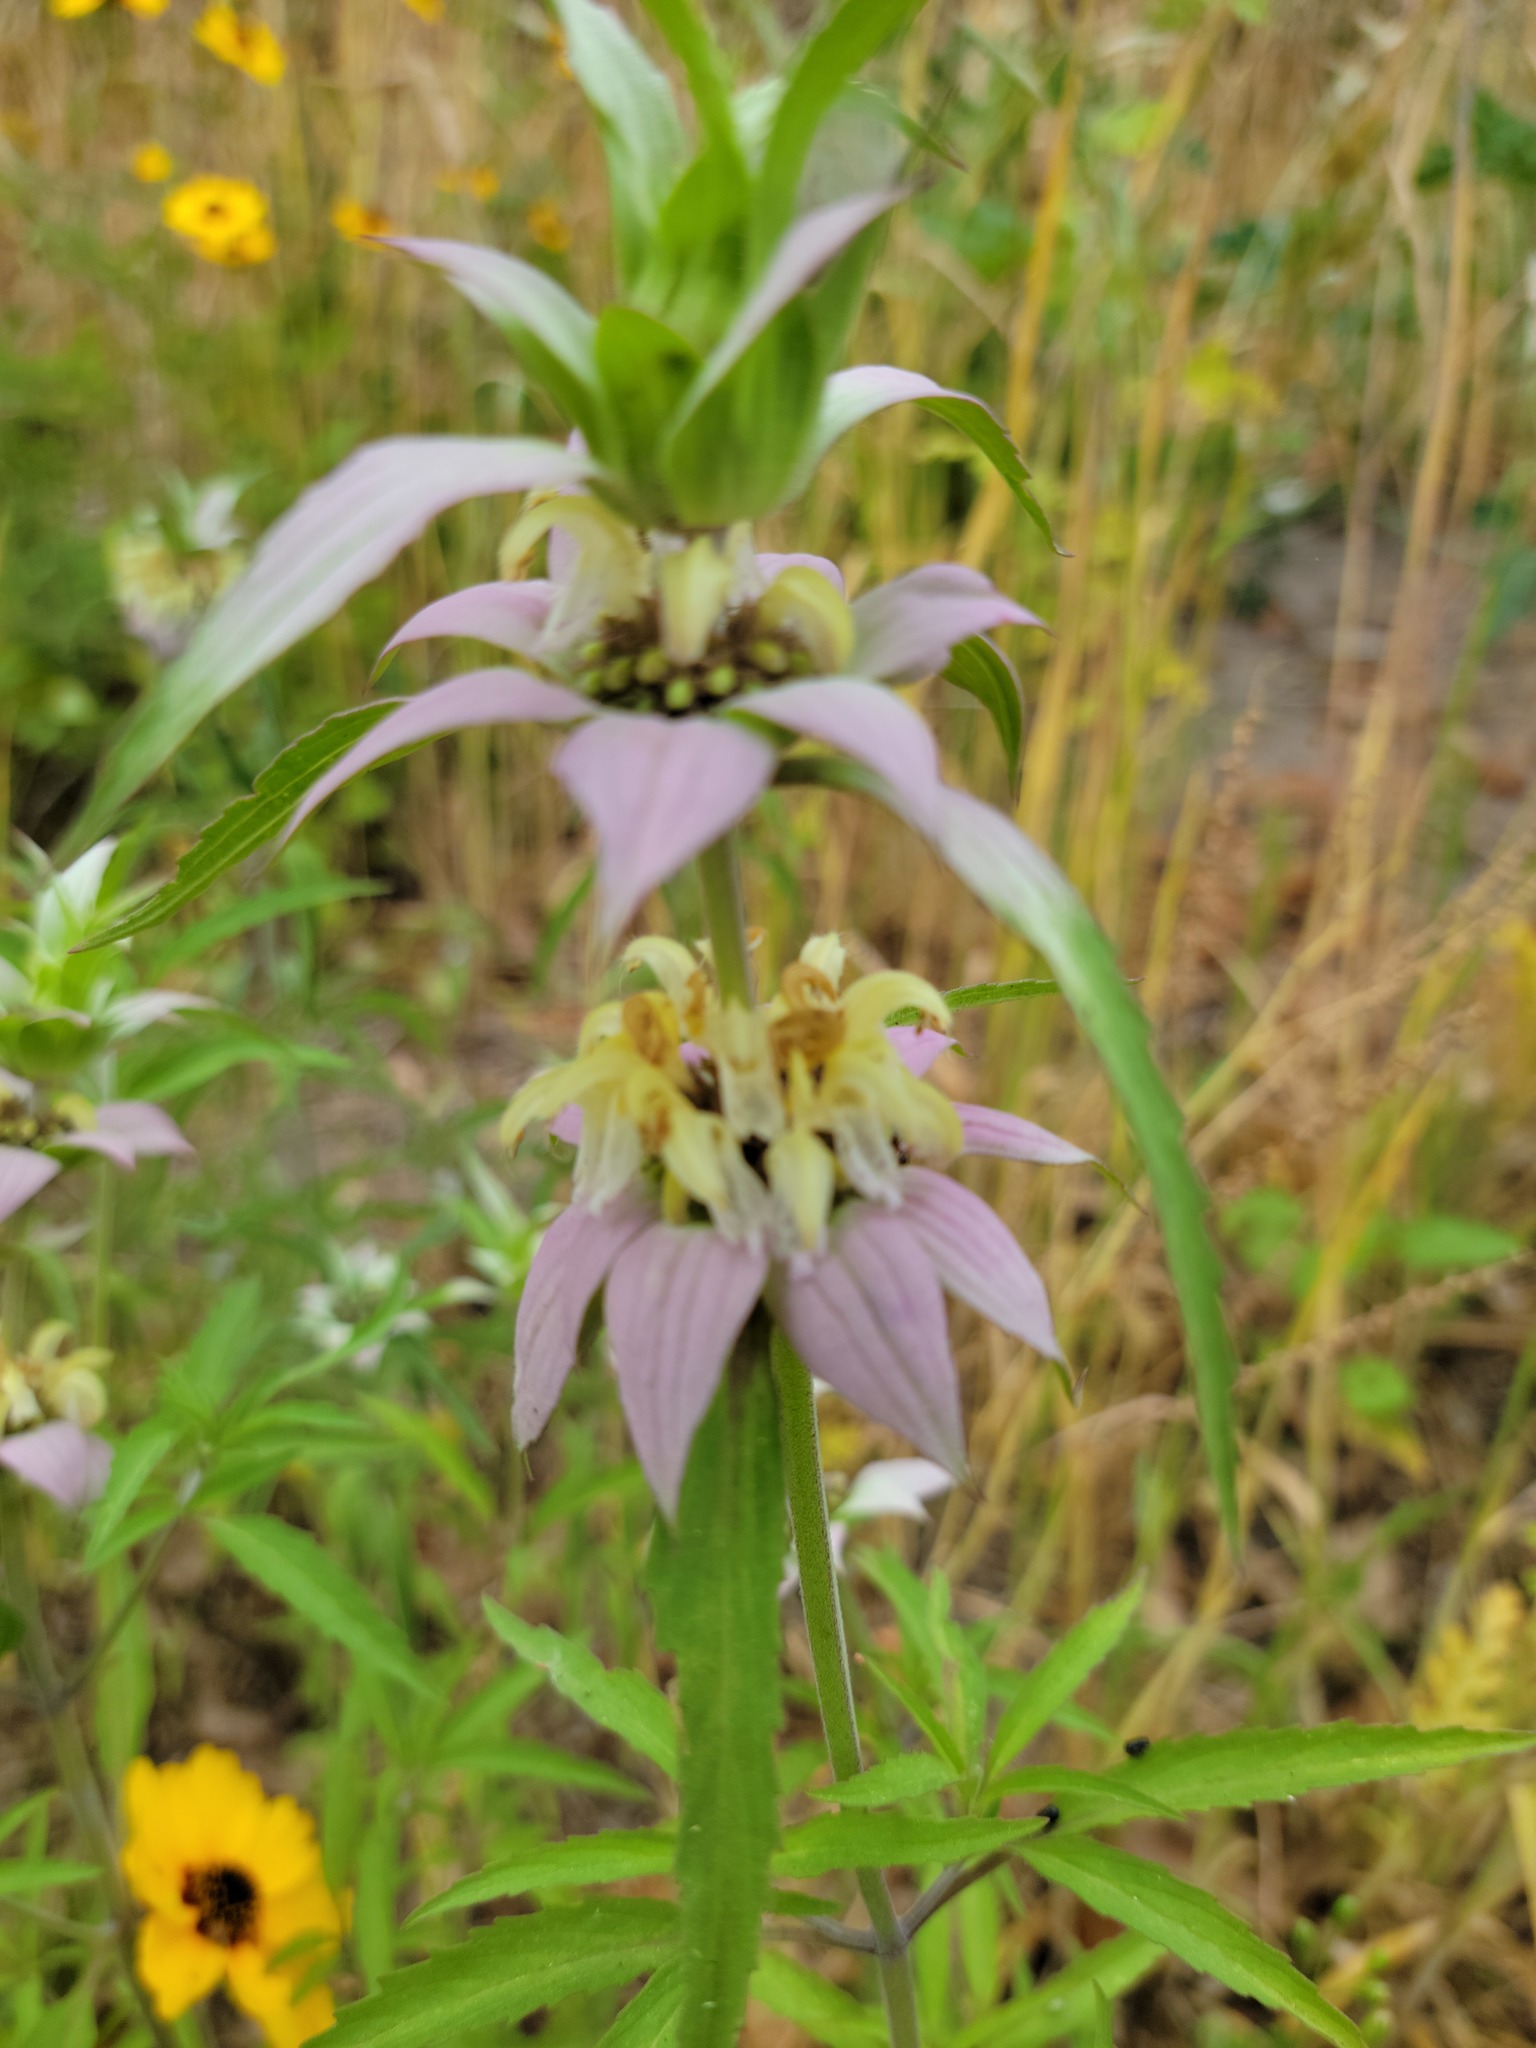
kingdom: Plantae
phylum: Tracheophyta
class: Magnoliopsida
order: Lamiales
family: Lamiaceae
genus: Monarda
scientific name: Monarda punctata
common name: Dotted monarda
